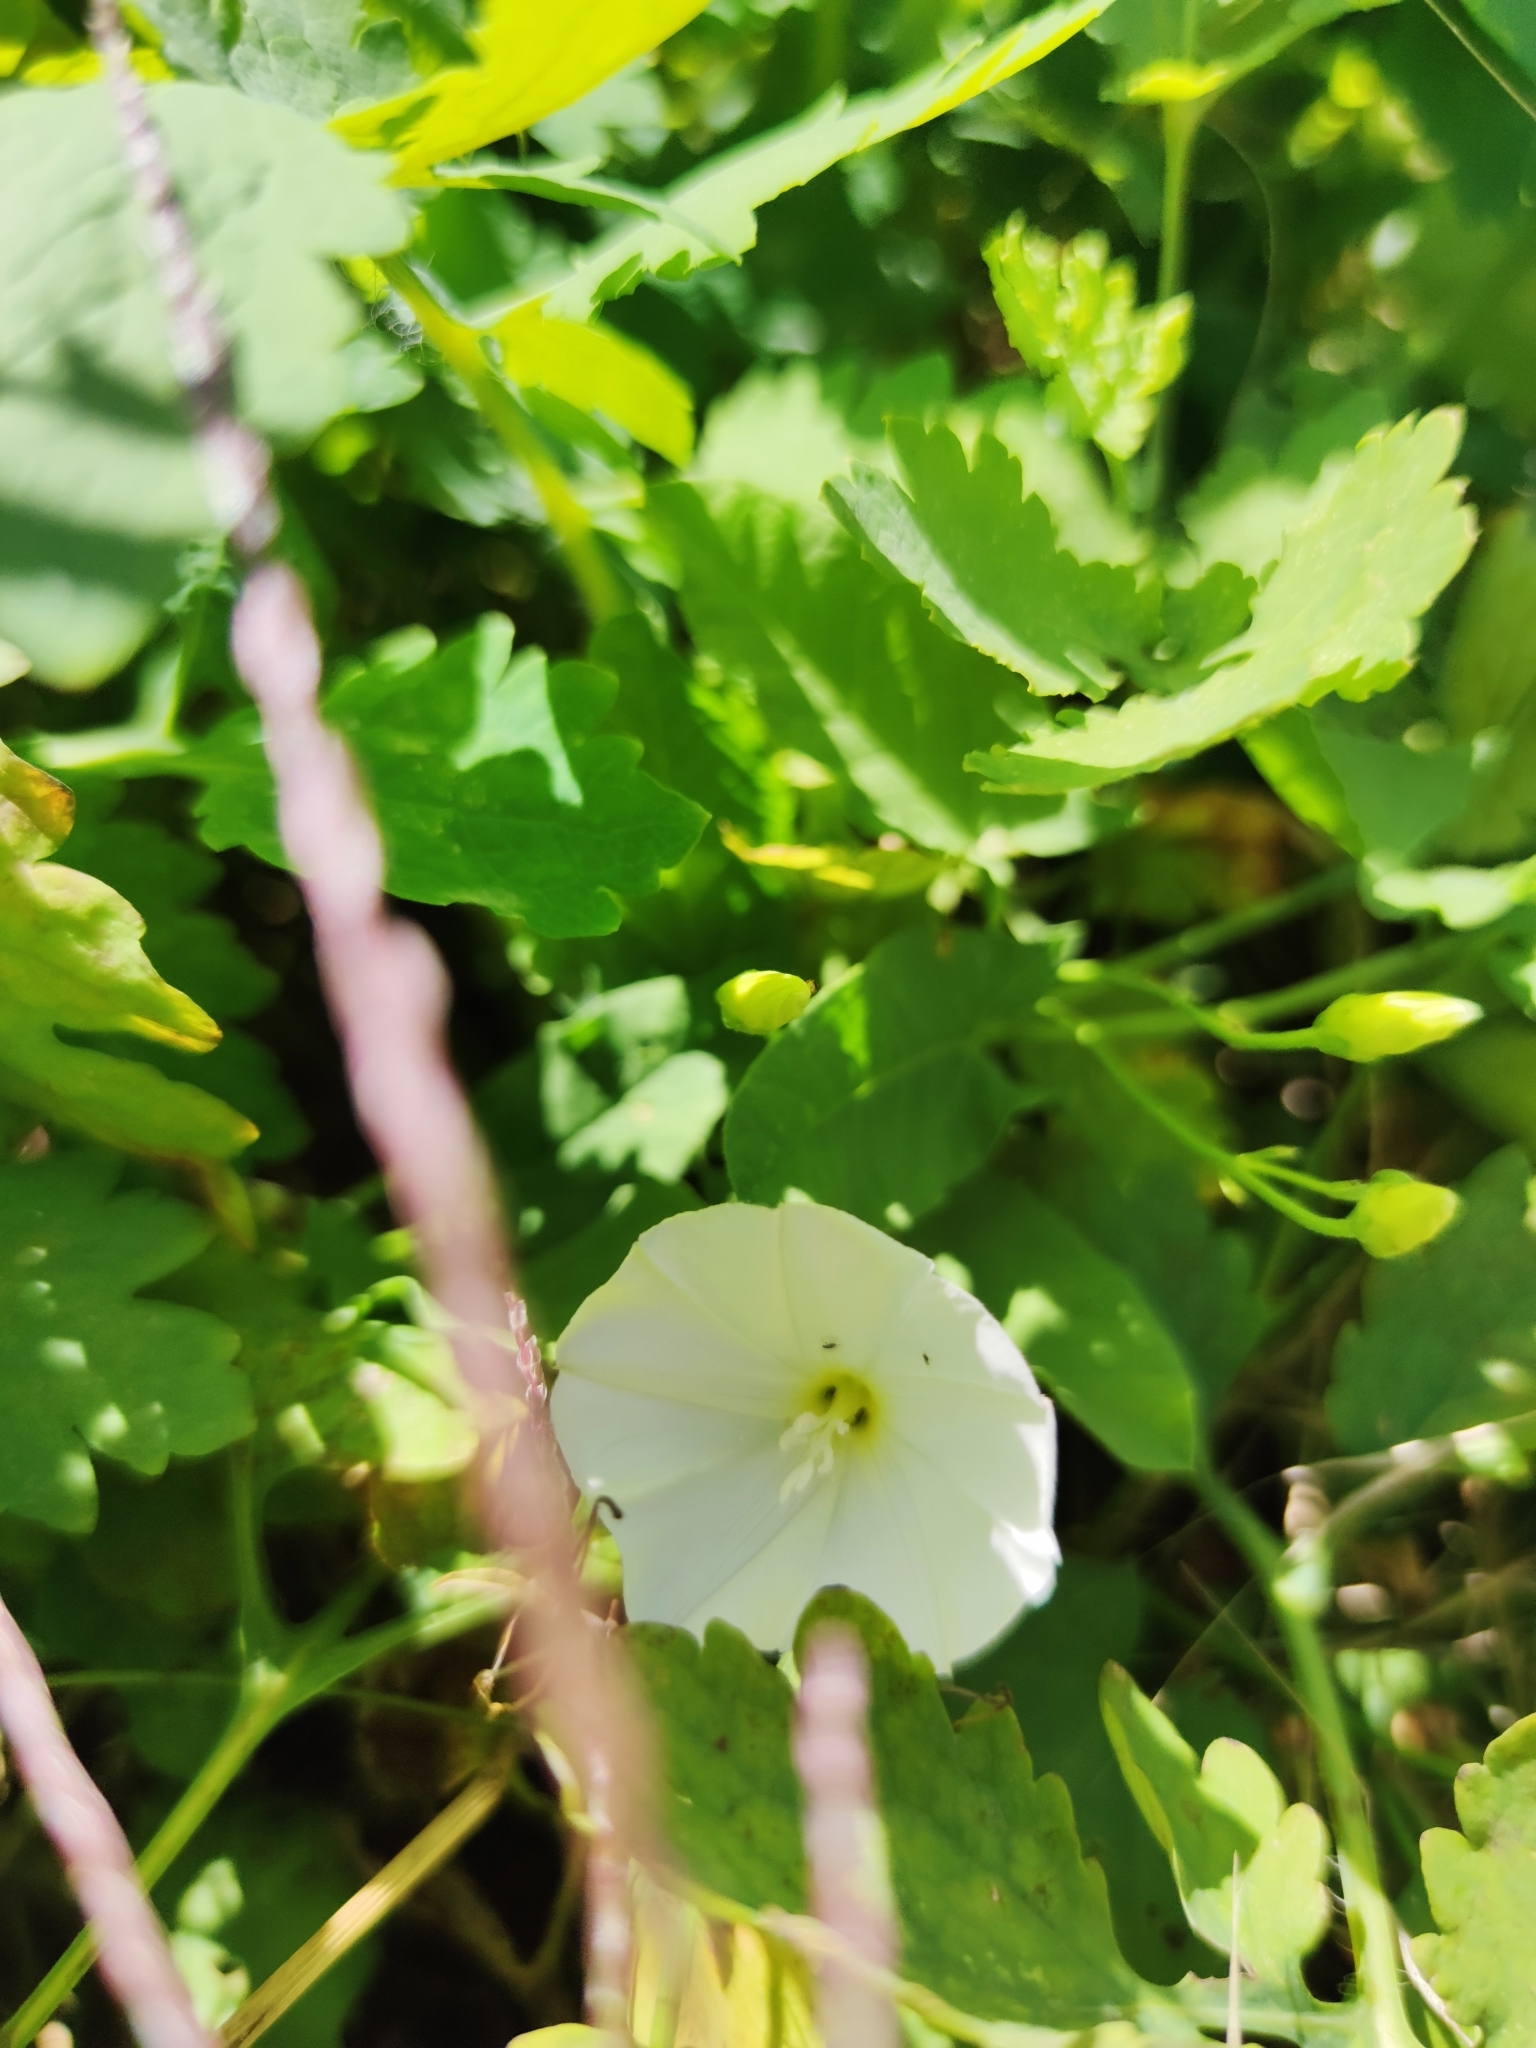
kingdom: Plantae
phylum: Tracheophyta
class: Magnoliopsida
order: Solanales
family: Convolvulaceae
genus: Convolvulus
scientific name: Convolvulus arvensis
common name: Field bindweed
